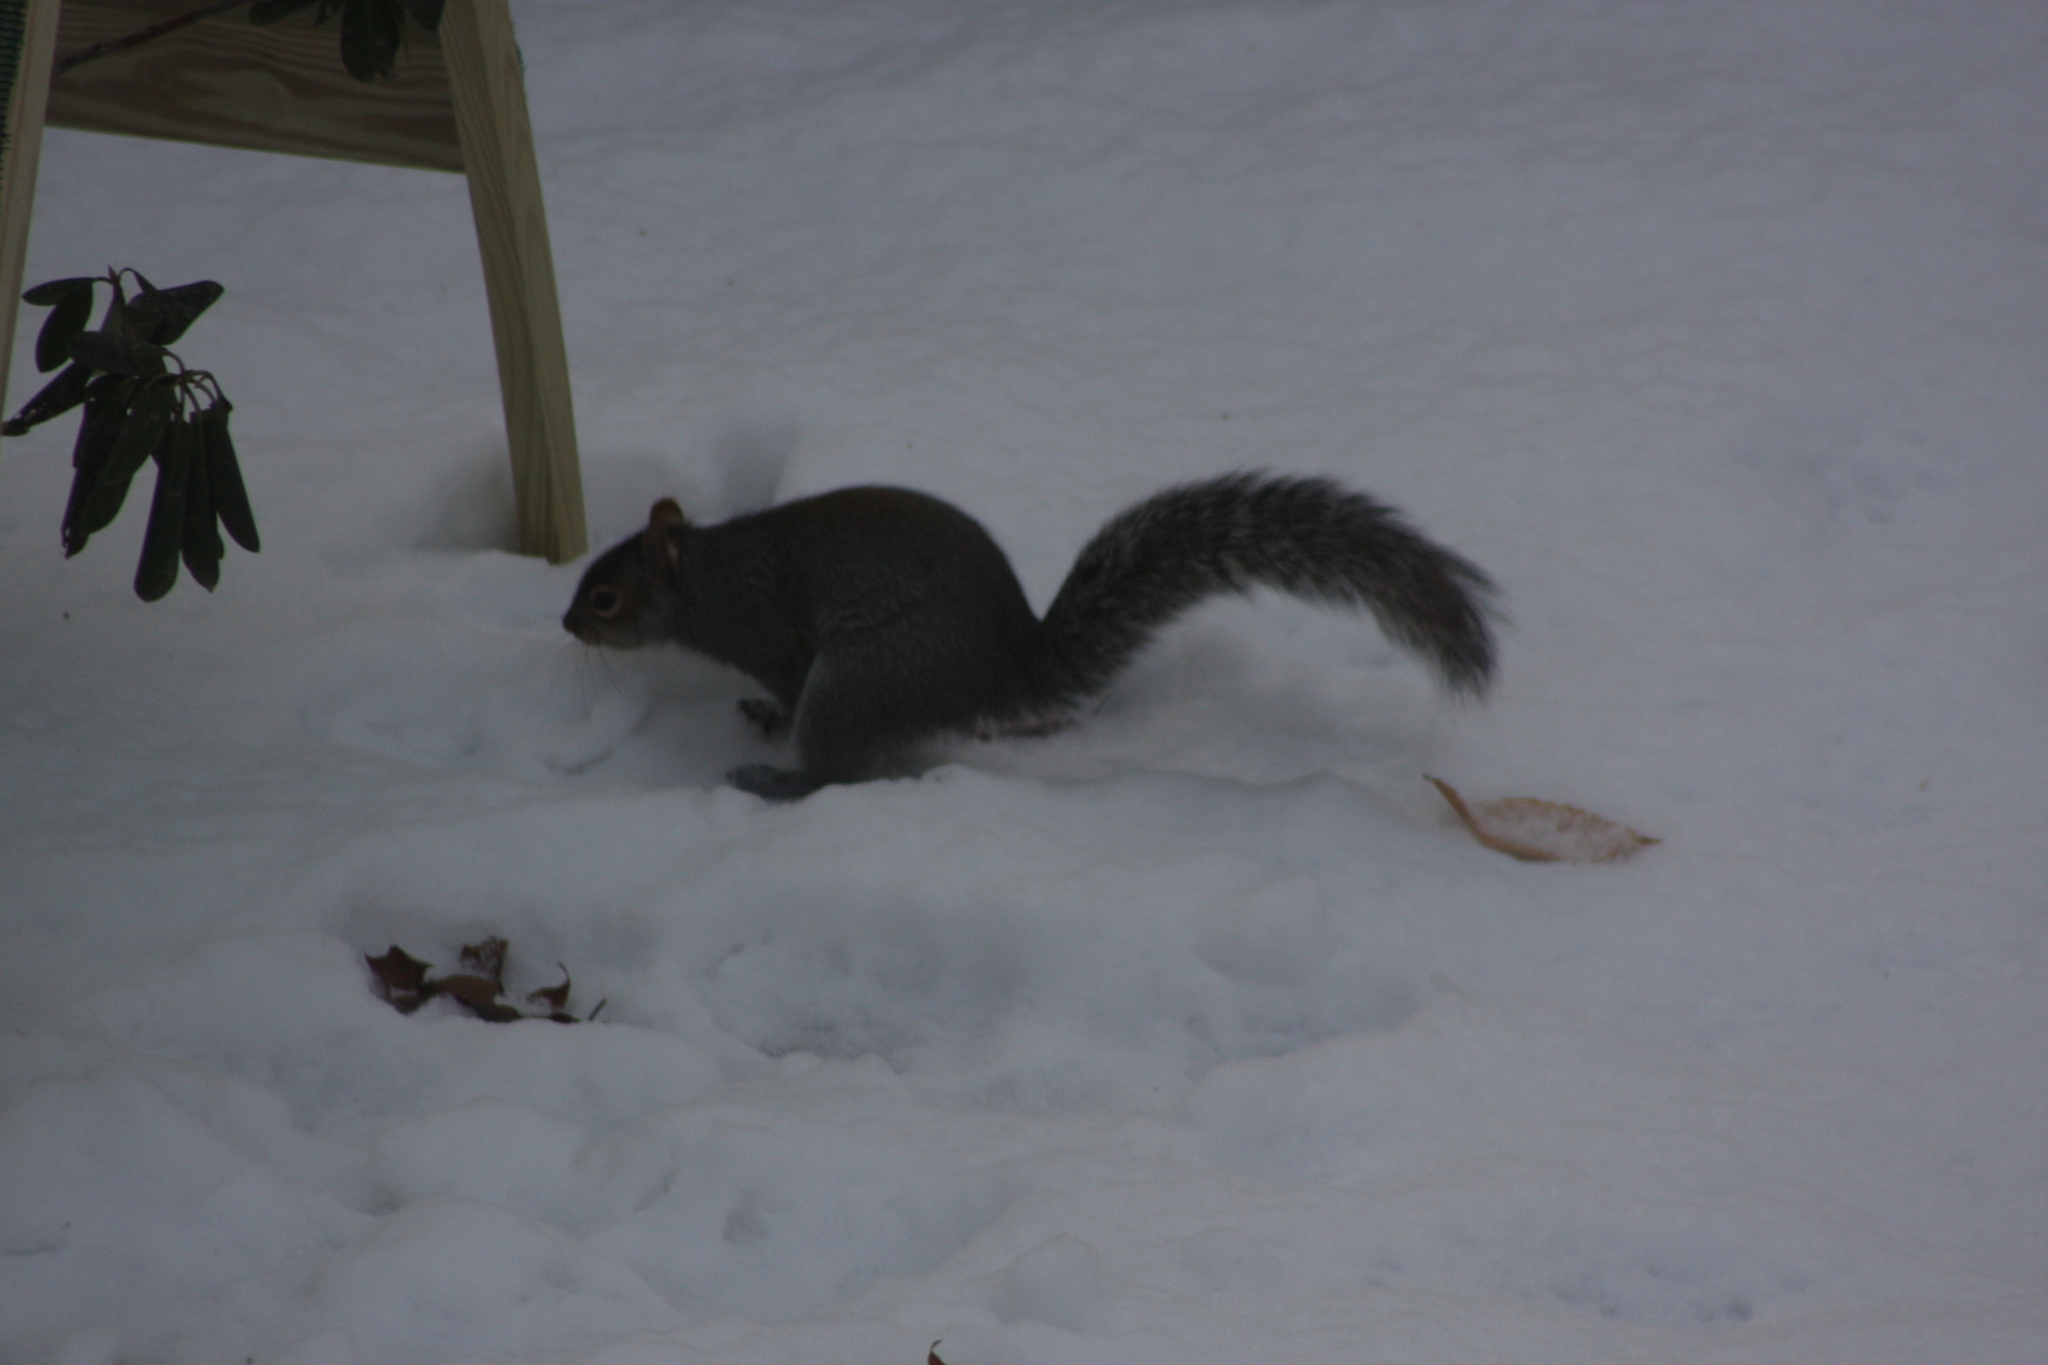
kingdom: Animalia
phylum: Chordata
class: Mammalia
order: Rodentia
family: Sciuridae
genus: Sciurus
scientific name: Sciurus carolinensis
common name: Eastern gray squirrel
